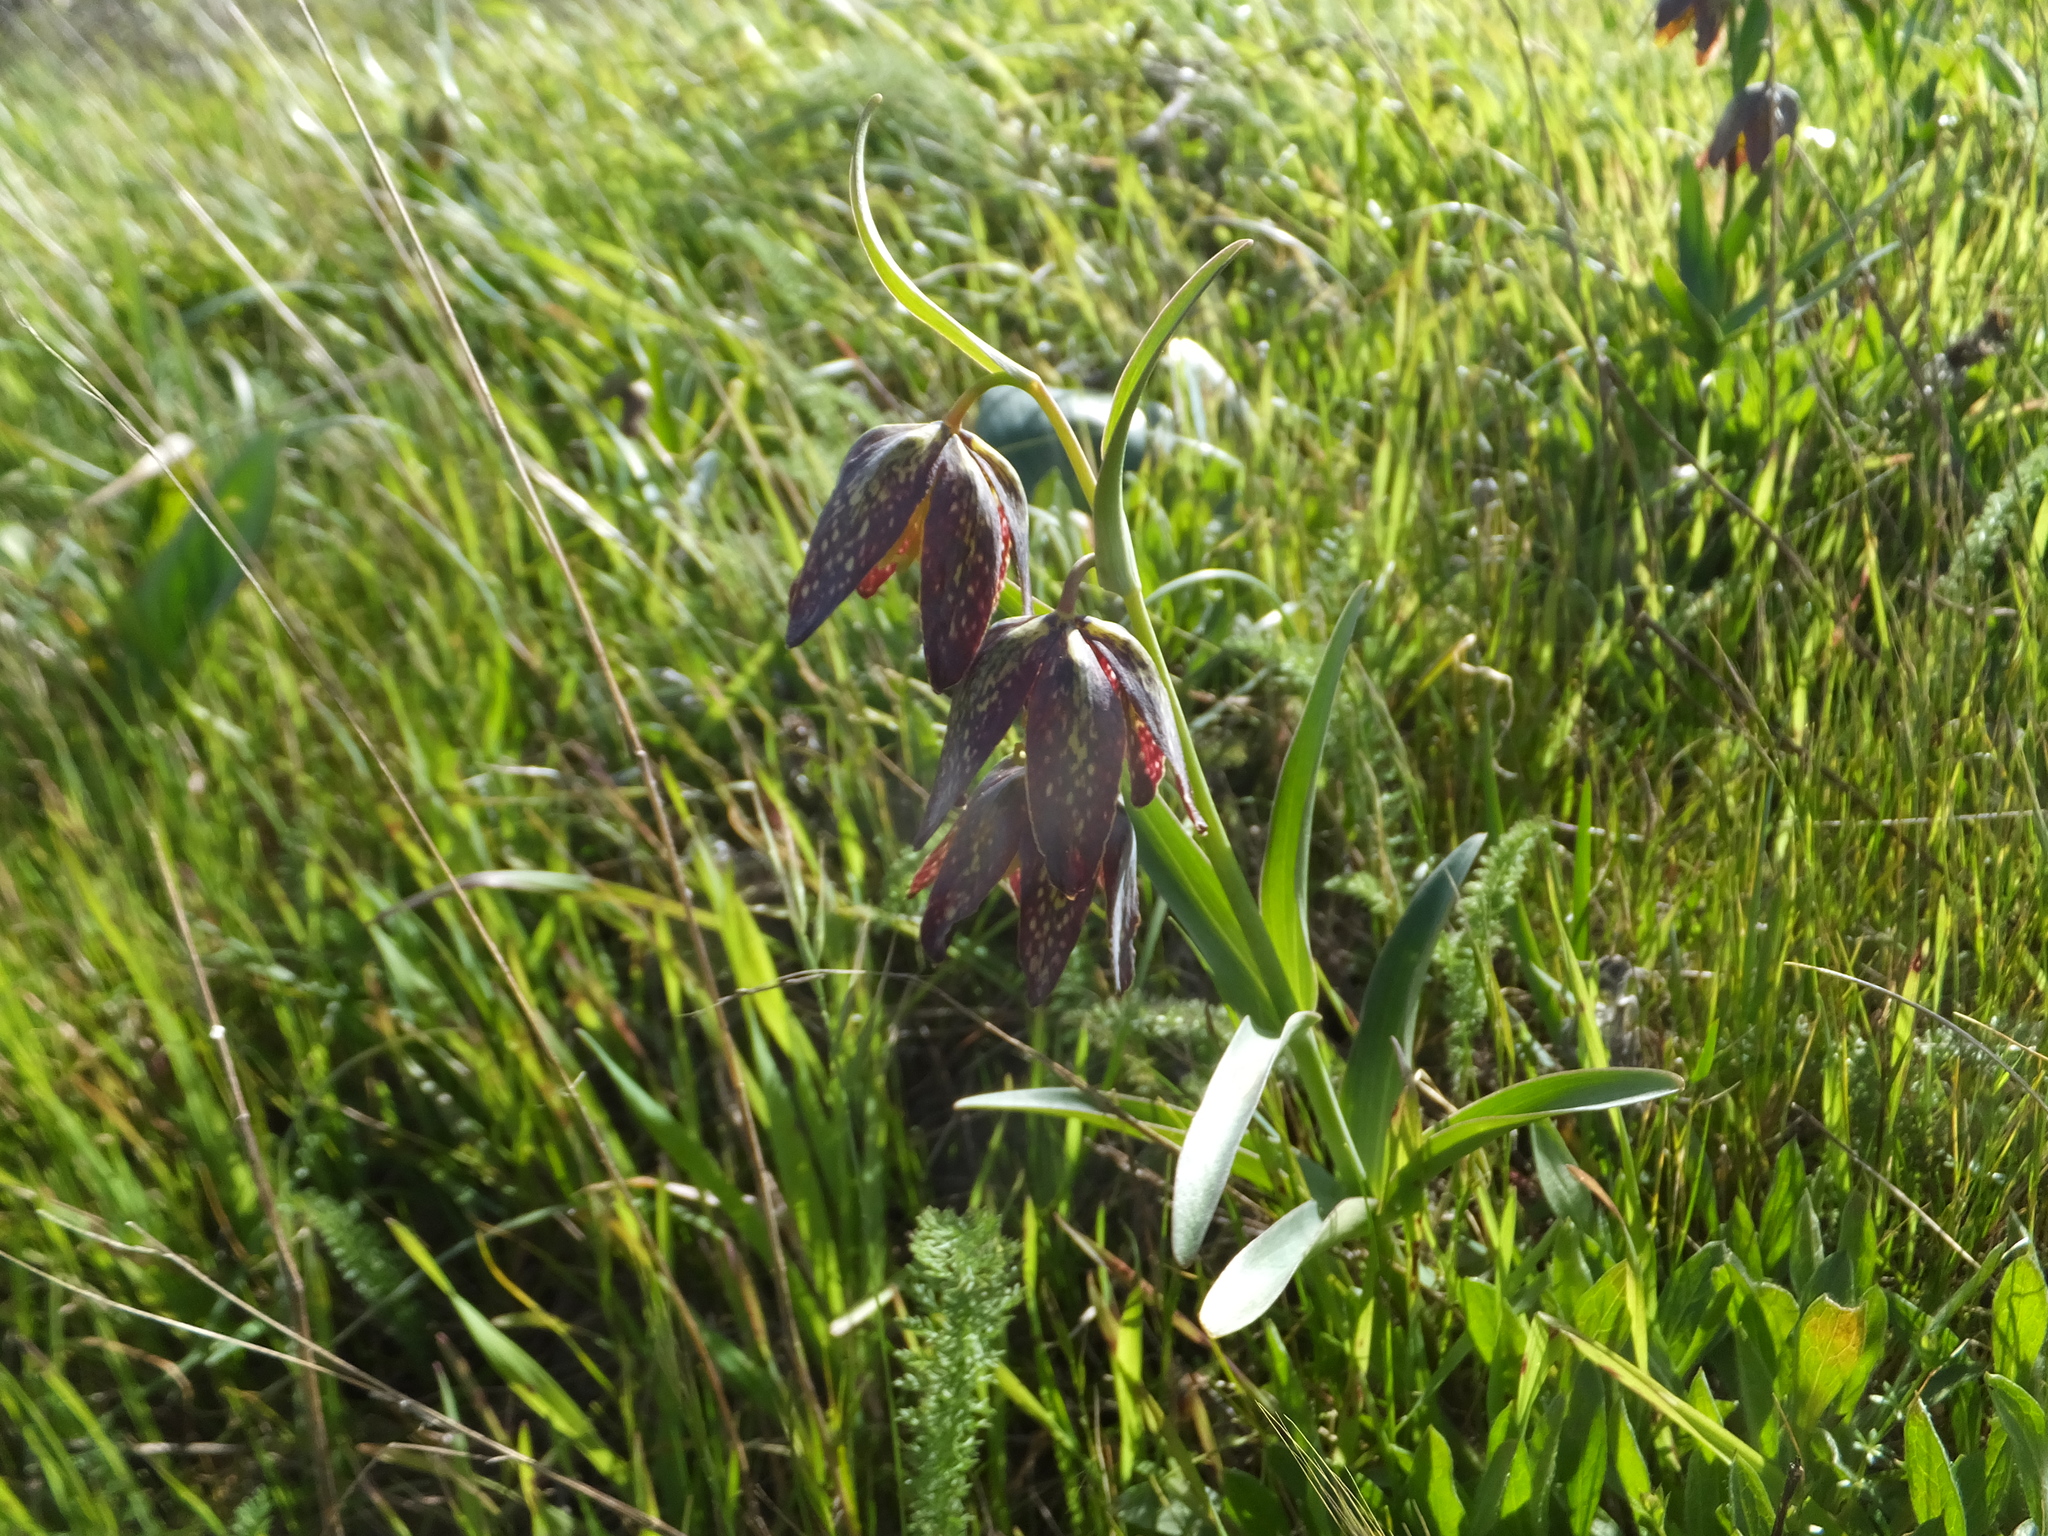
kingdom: Plantae
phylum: Tracheophyta
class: Liliopsida
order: Liliales
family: Liliaceae
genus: Fritillaria
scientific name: Fritillaria affinis
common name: Ojai fritillary
